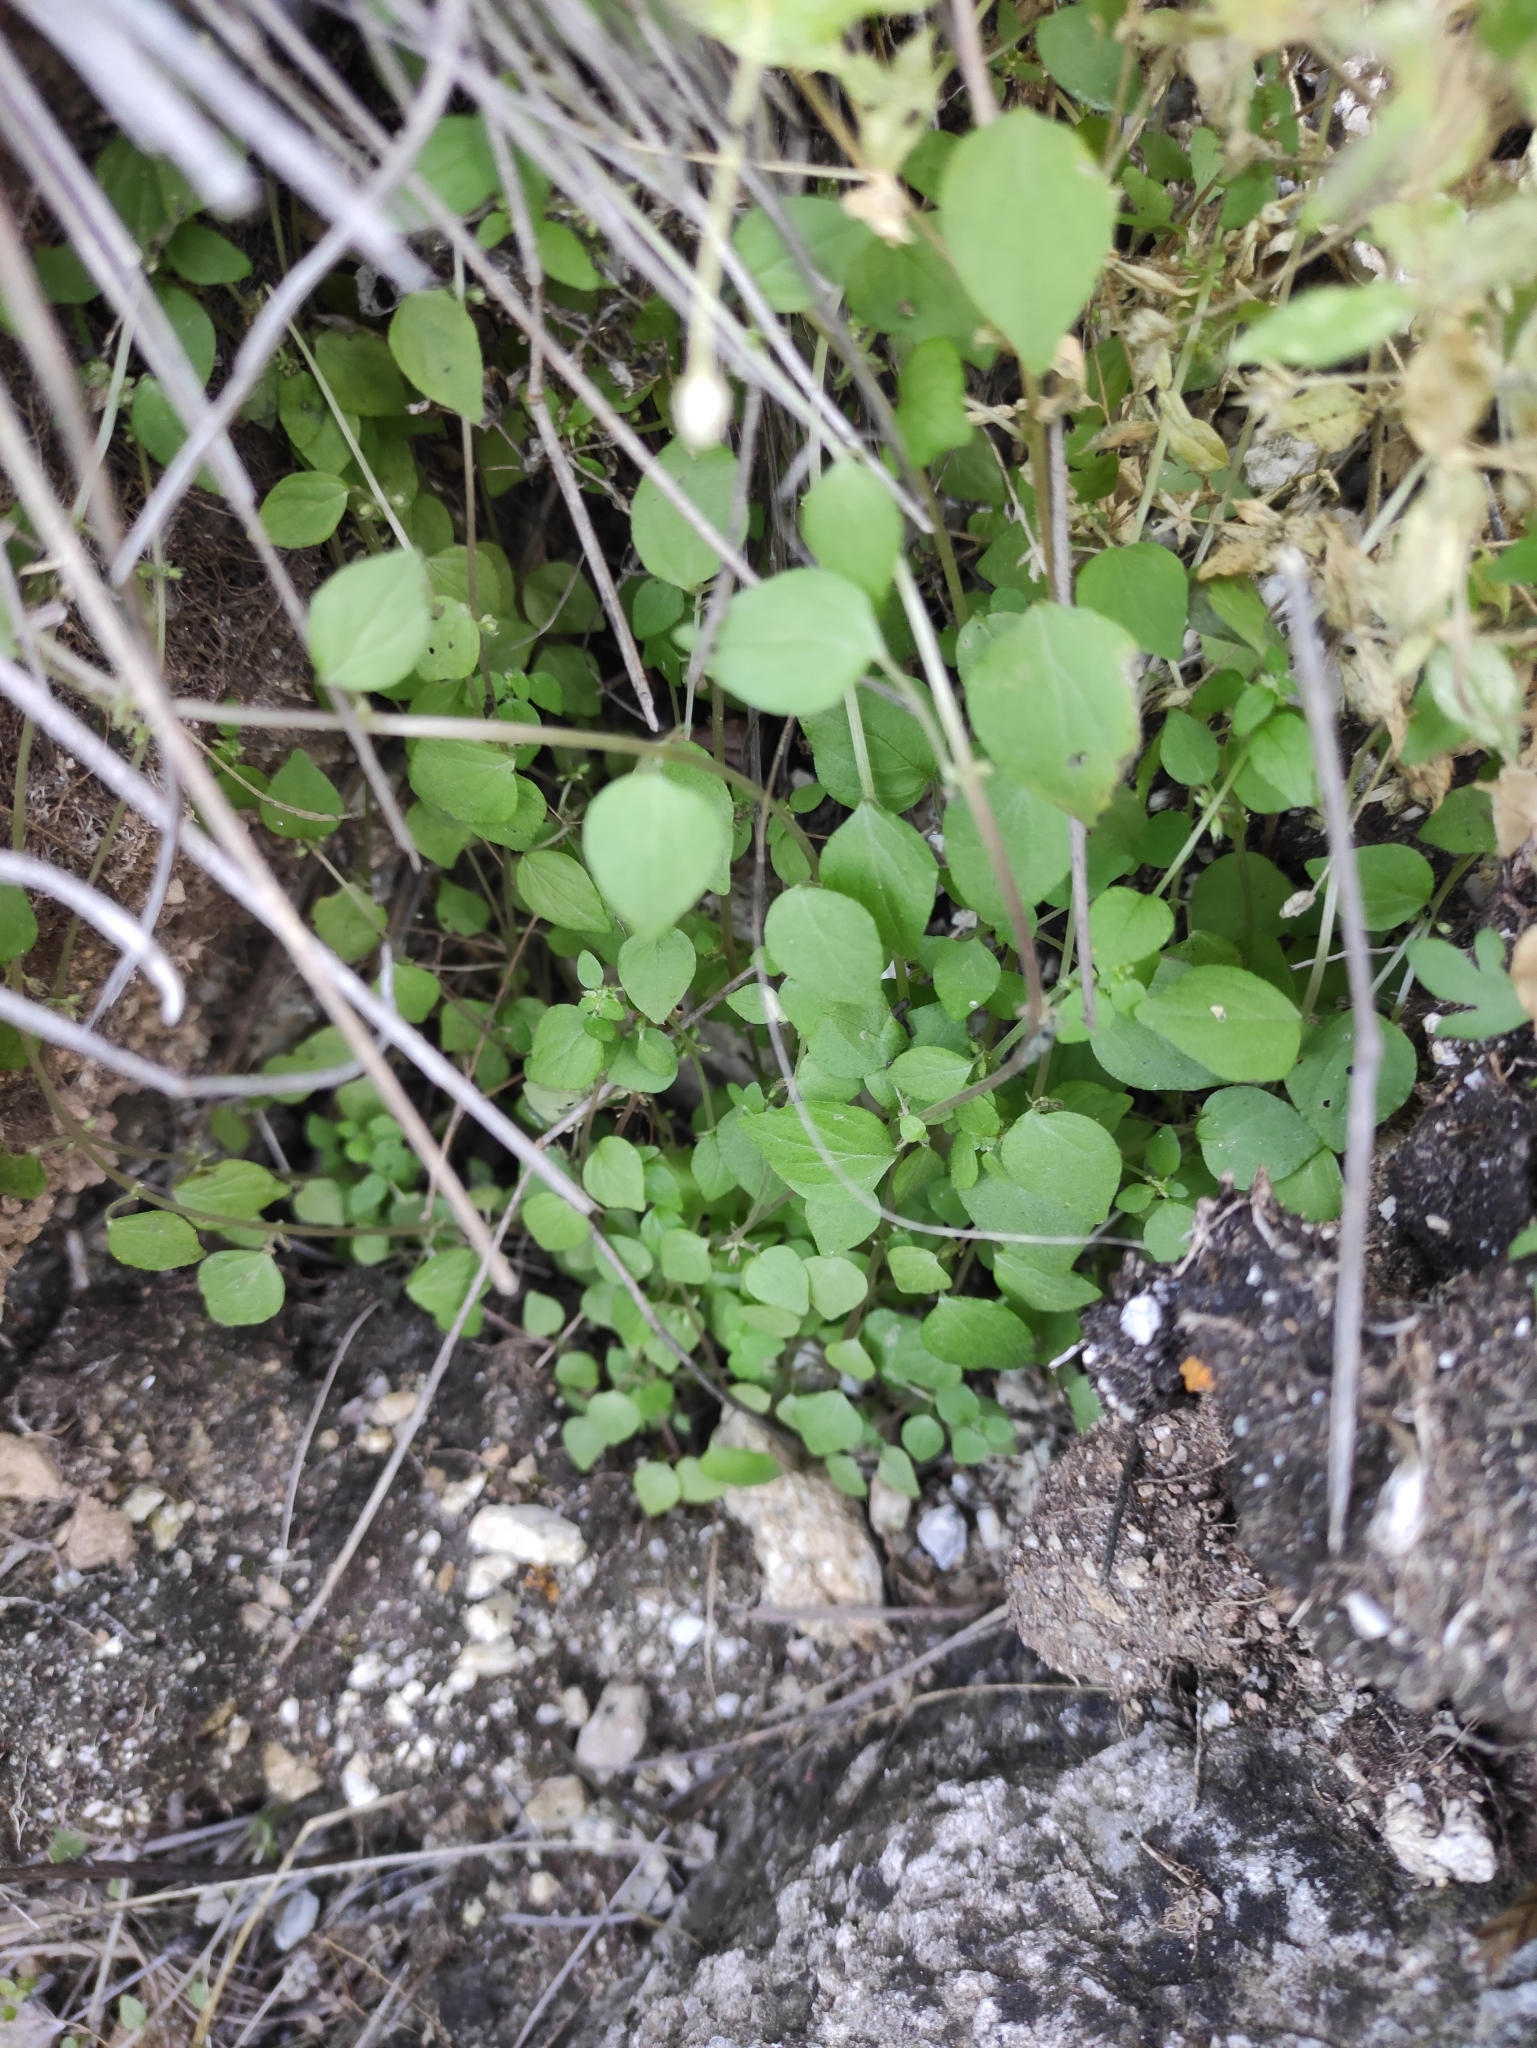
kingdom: Plantae
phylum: Tracheophyta
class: Magnoliopsida
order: Rosales
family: Urticaceae
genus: Parietaria
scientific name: Parietaria micrantha
